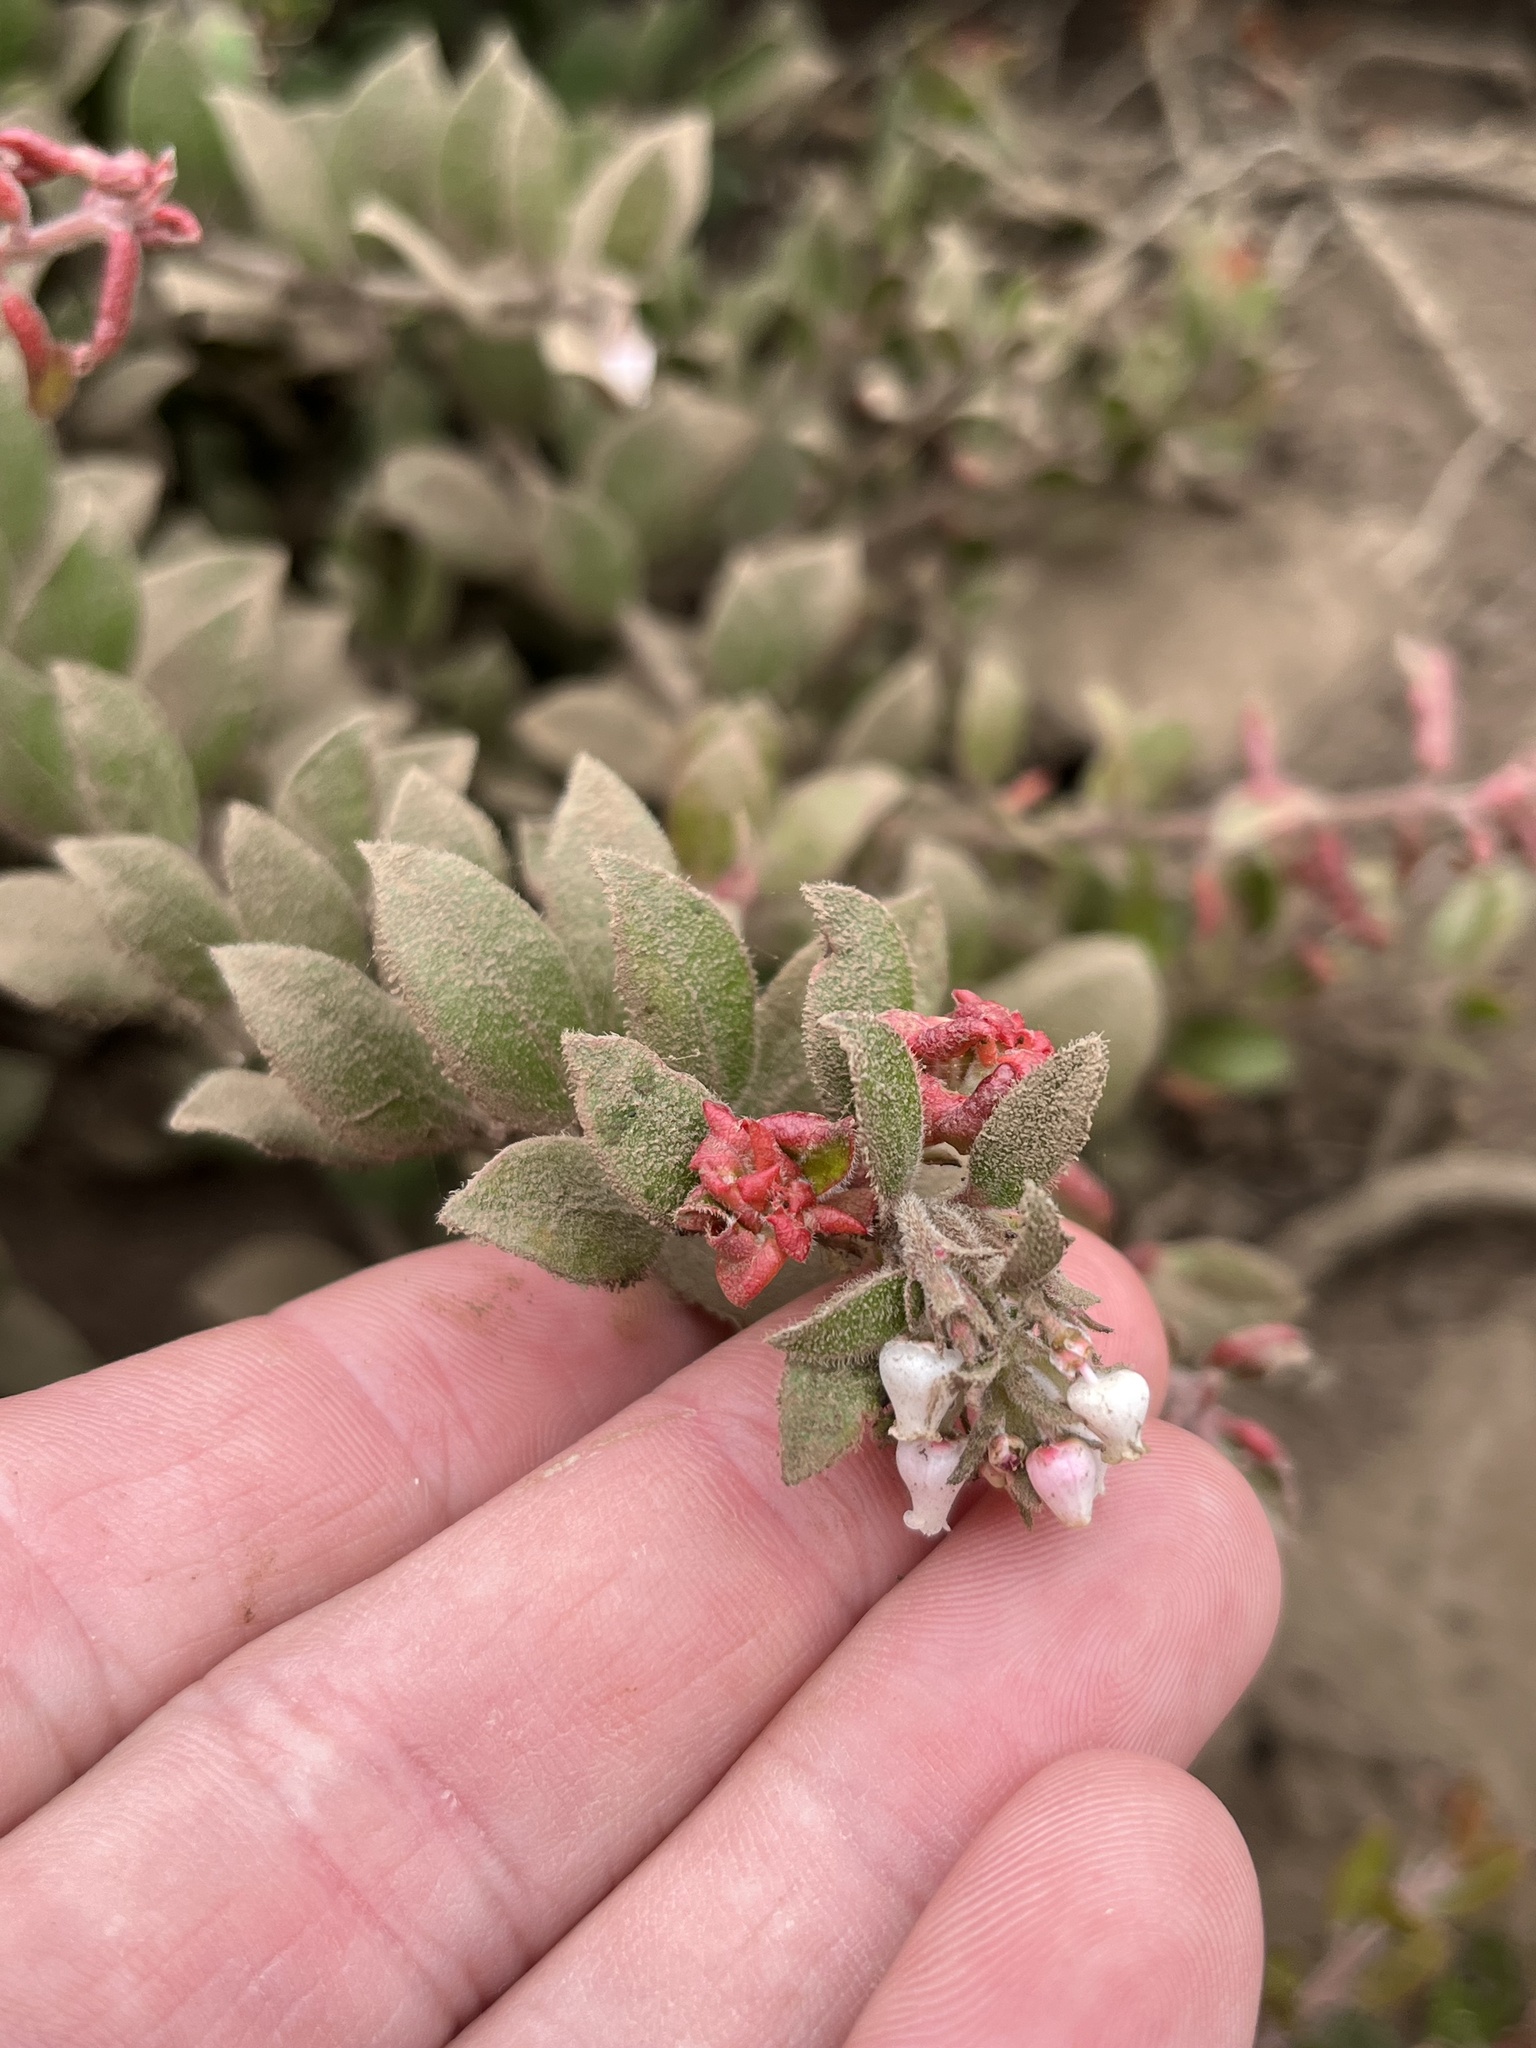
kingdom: Plantae
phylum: Tracheophyta
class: Magnoliopsida
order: Ericales
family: Ericaceae
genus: Arctostaphylos
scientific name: Arctostaphylos edmundsii
